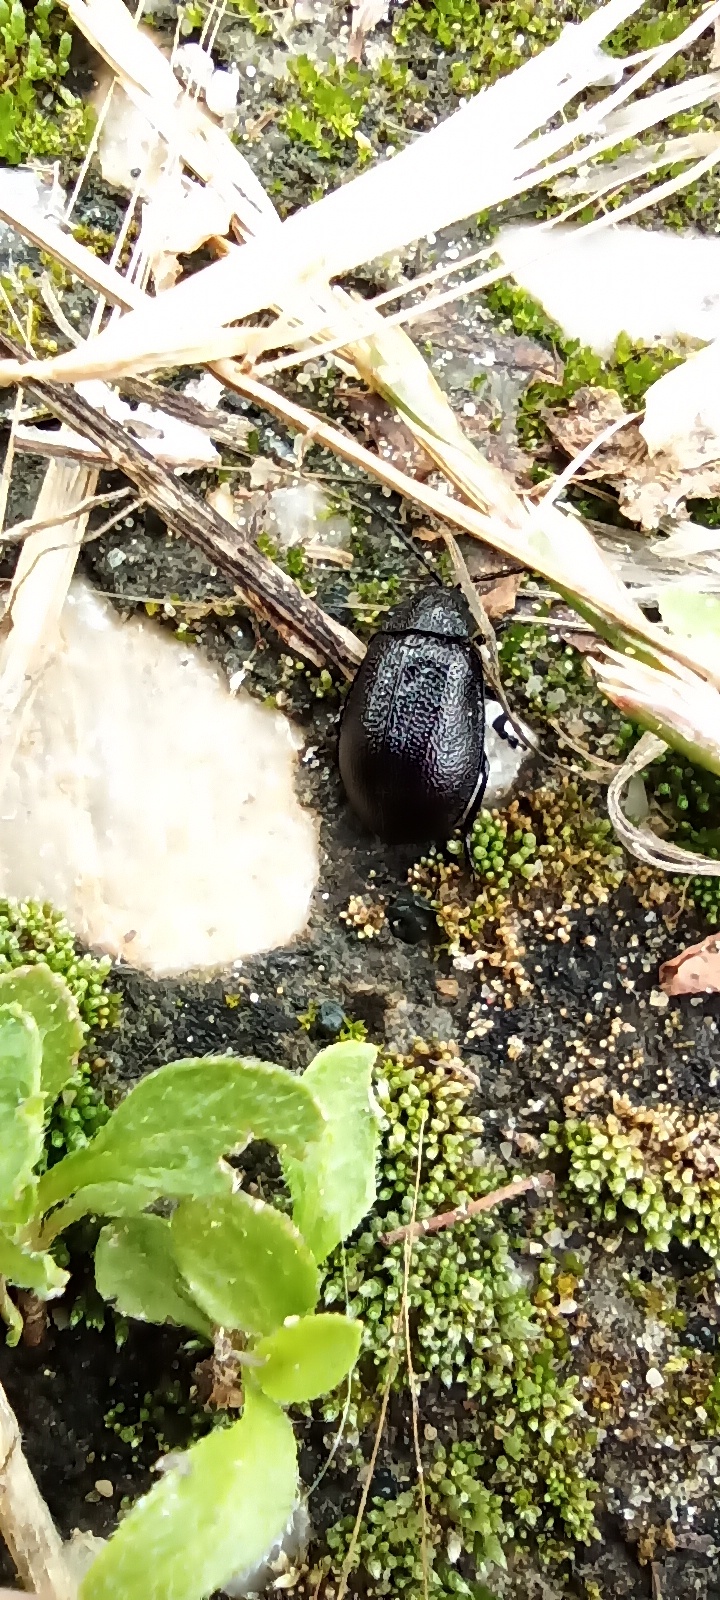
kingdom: Animalia
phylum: Arthropoda
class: Insecta
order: Coleoptera
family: Chrysomelidae
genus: Galeruca
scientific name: Galeruca tanaceti
